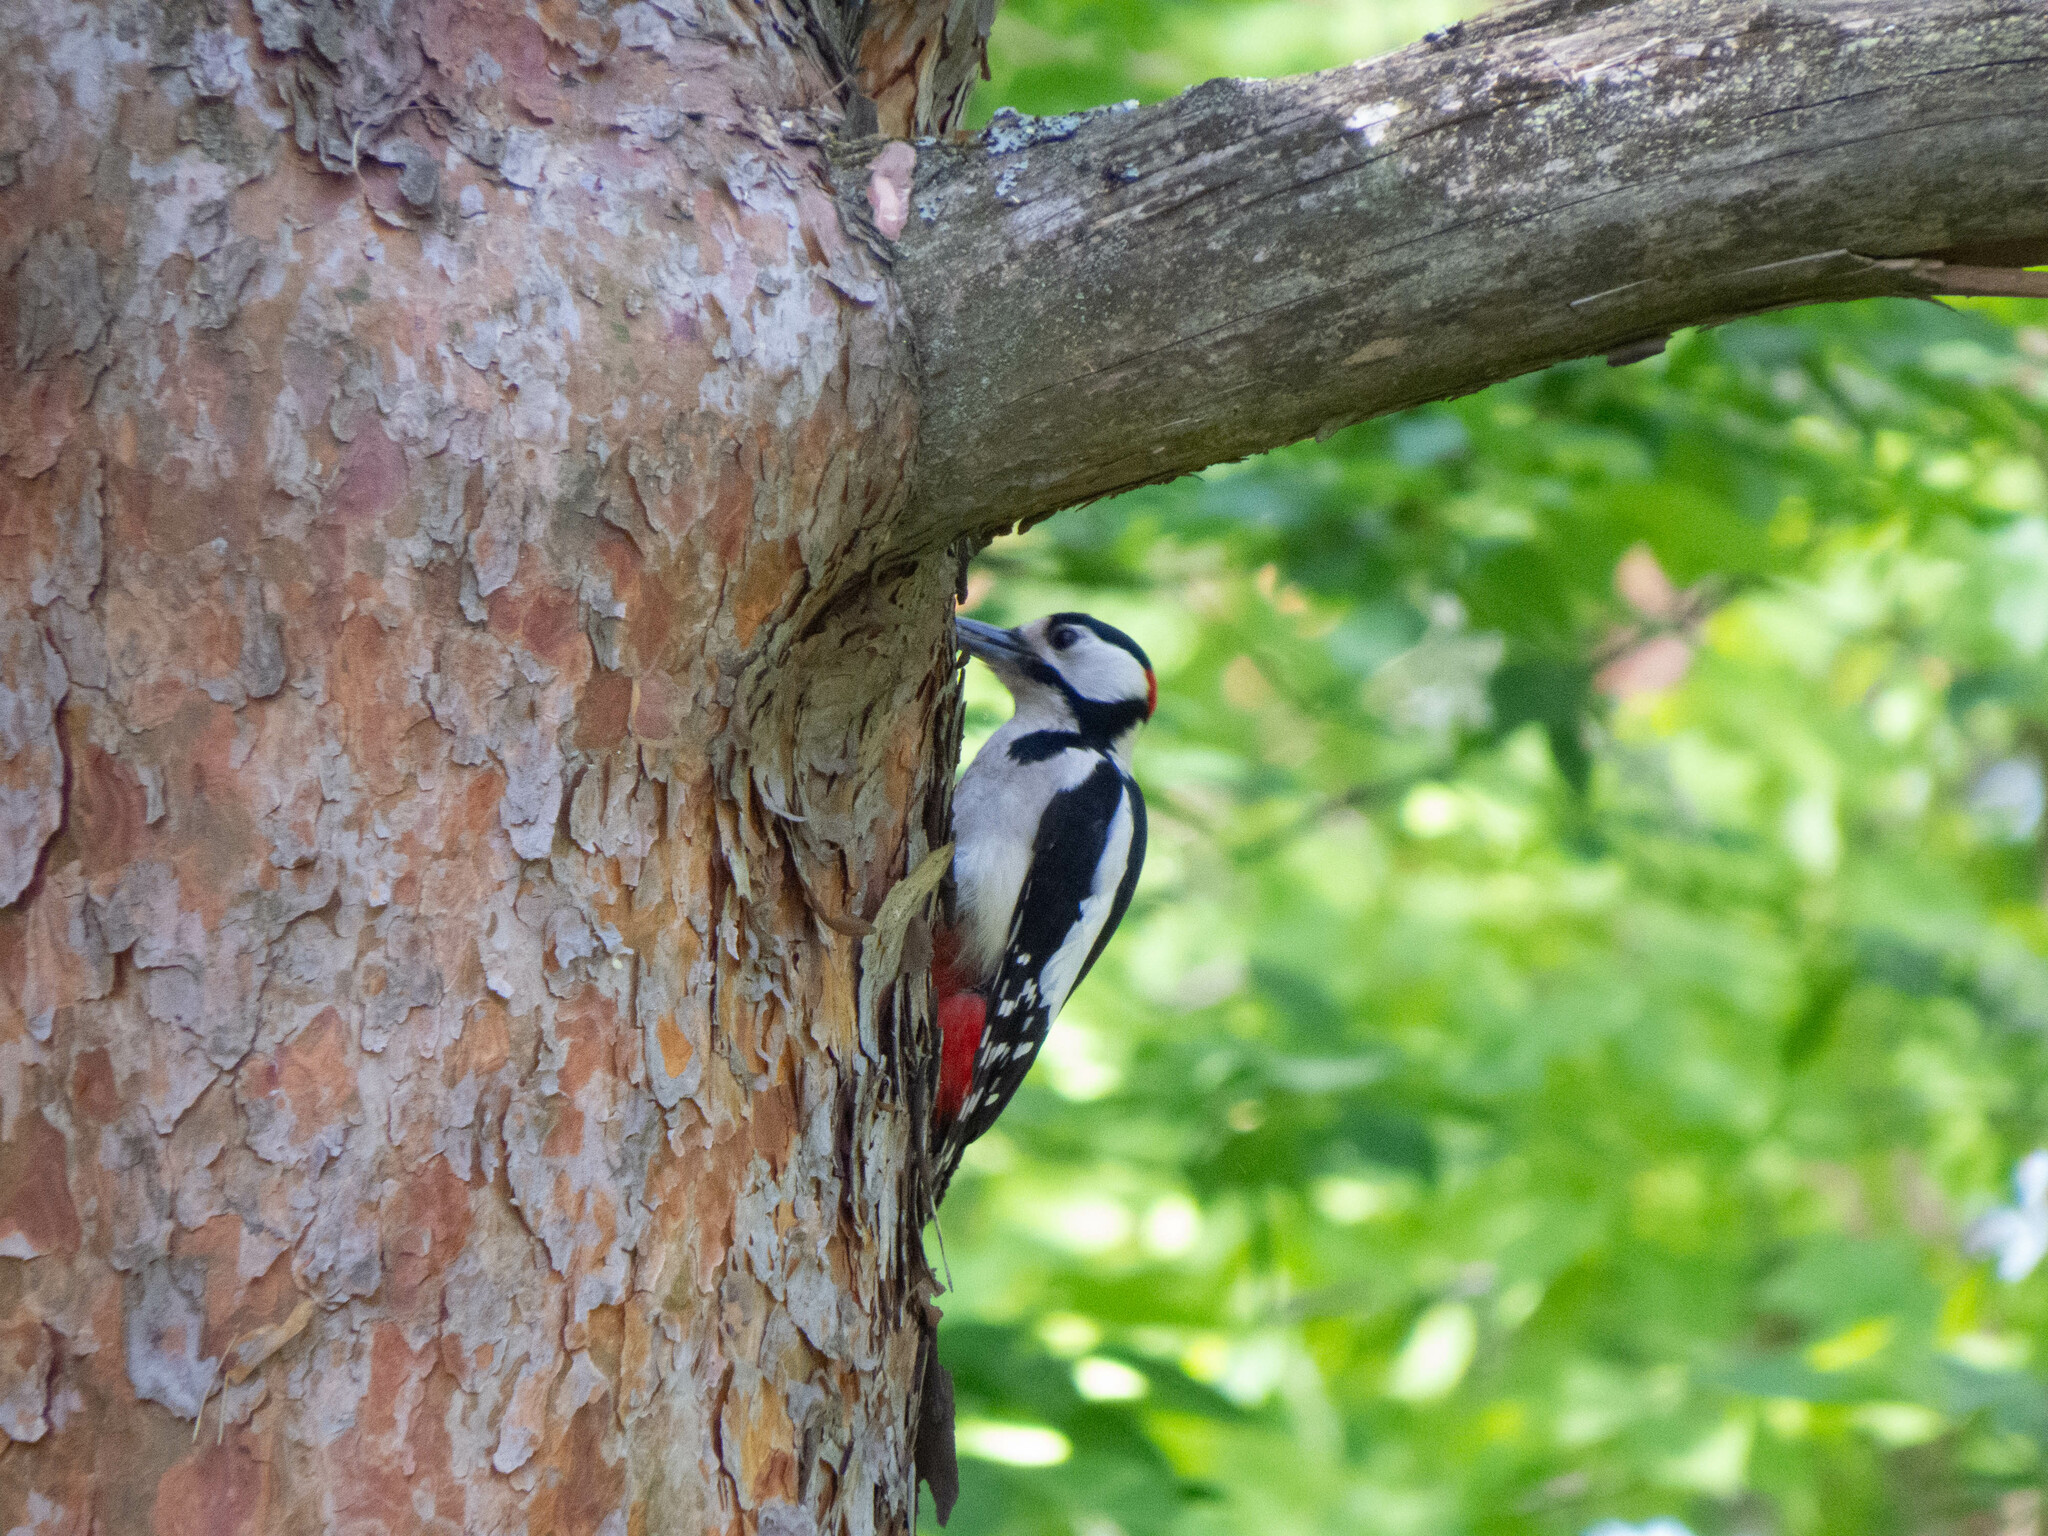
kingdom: Animalia
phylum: Chordata
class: Aves
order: Piciformes
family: Picidae
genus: Dendrocopos
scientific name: Dendrocopos major
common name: Great spotted woodpecker
